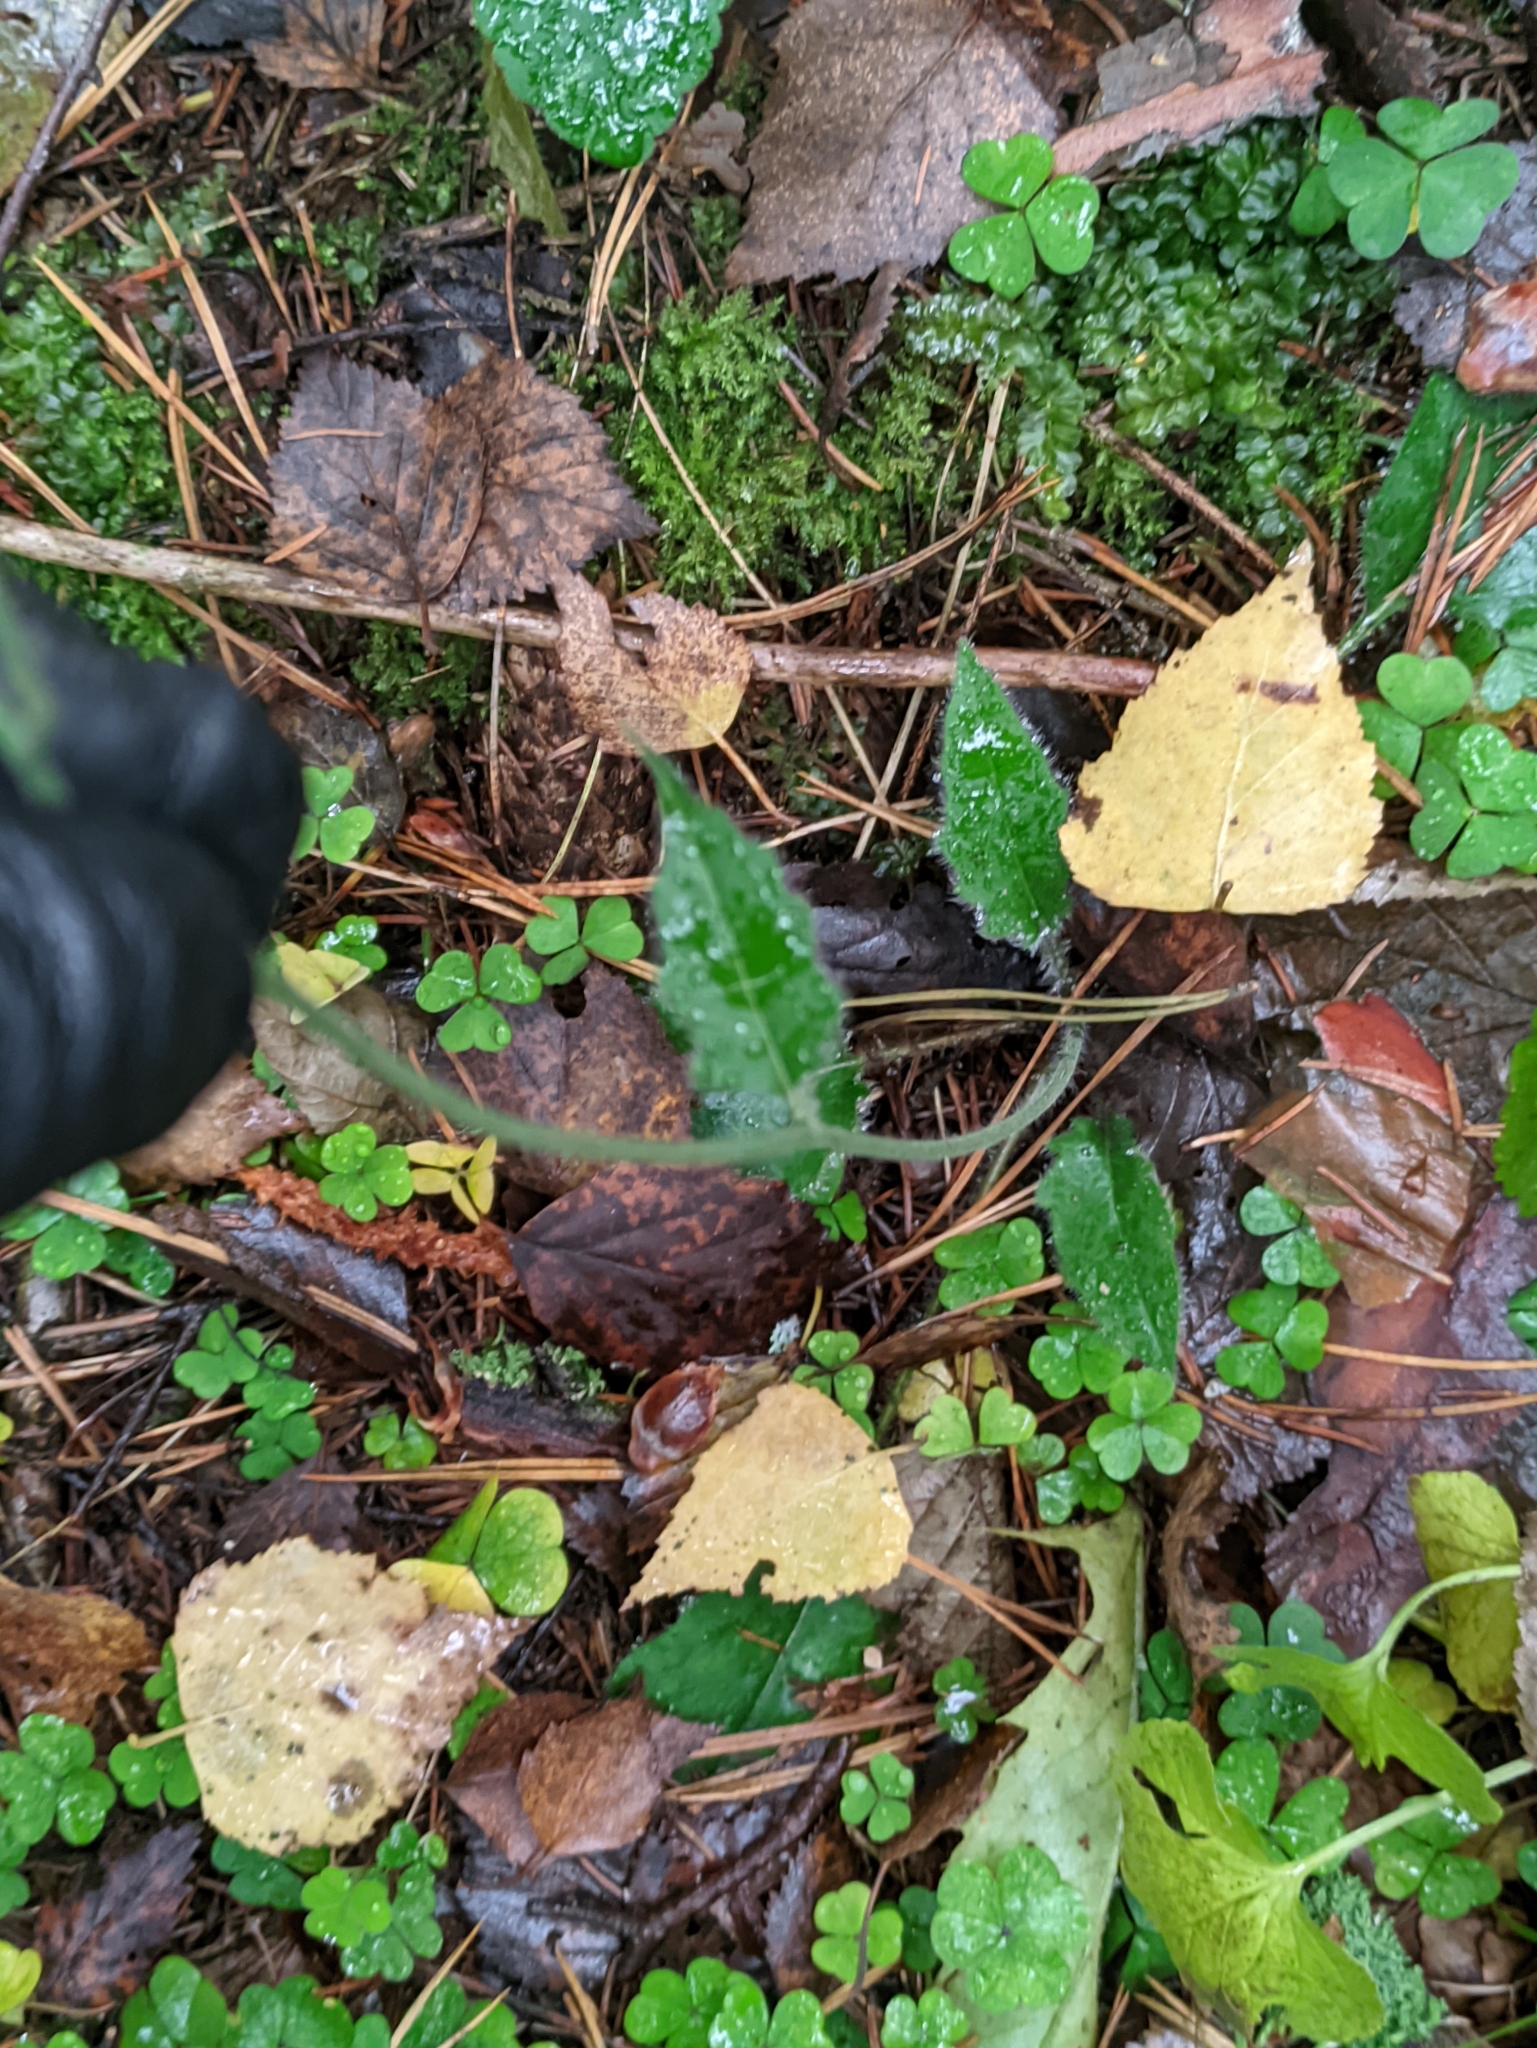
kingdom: Plantae
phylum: Tracheophyta
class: Magnoliopsida
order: Asterales
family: Asteraceae
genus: Hieracium
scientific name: Hieracium murorum
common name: Wall hawkweed
